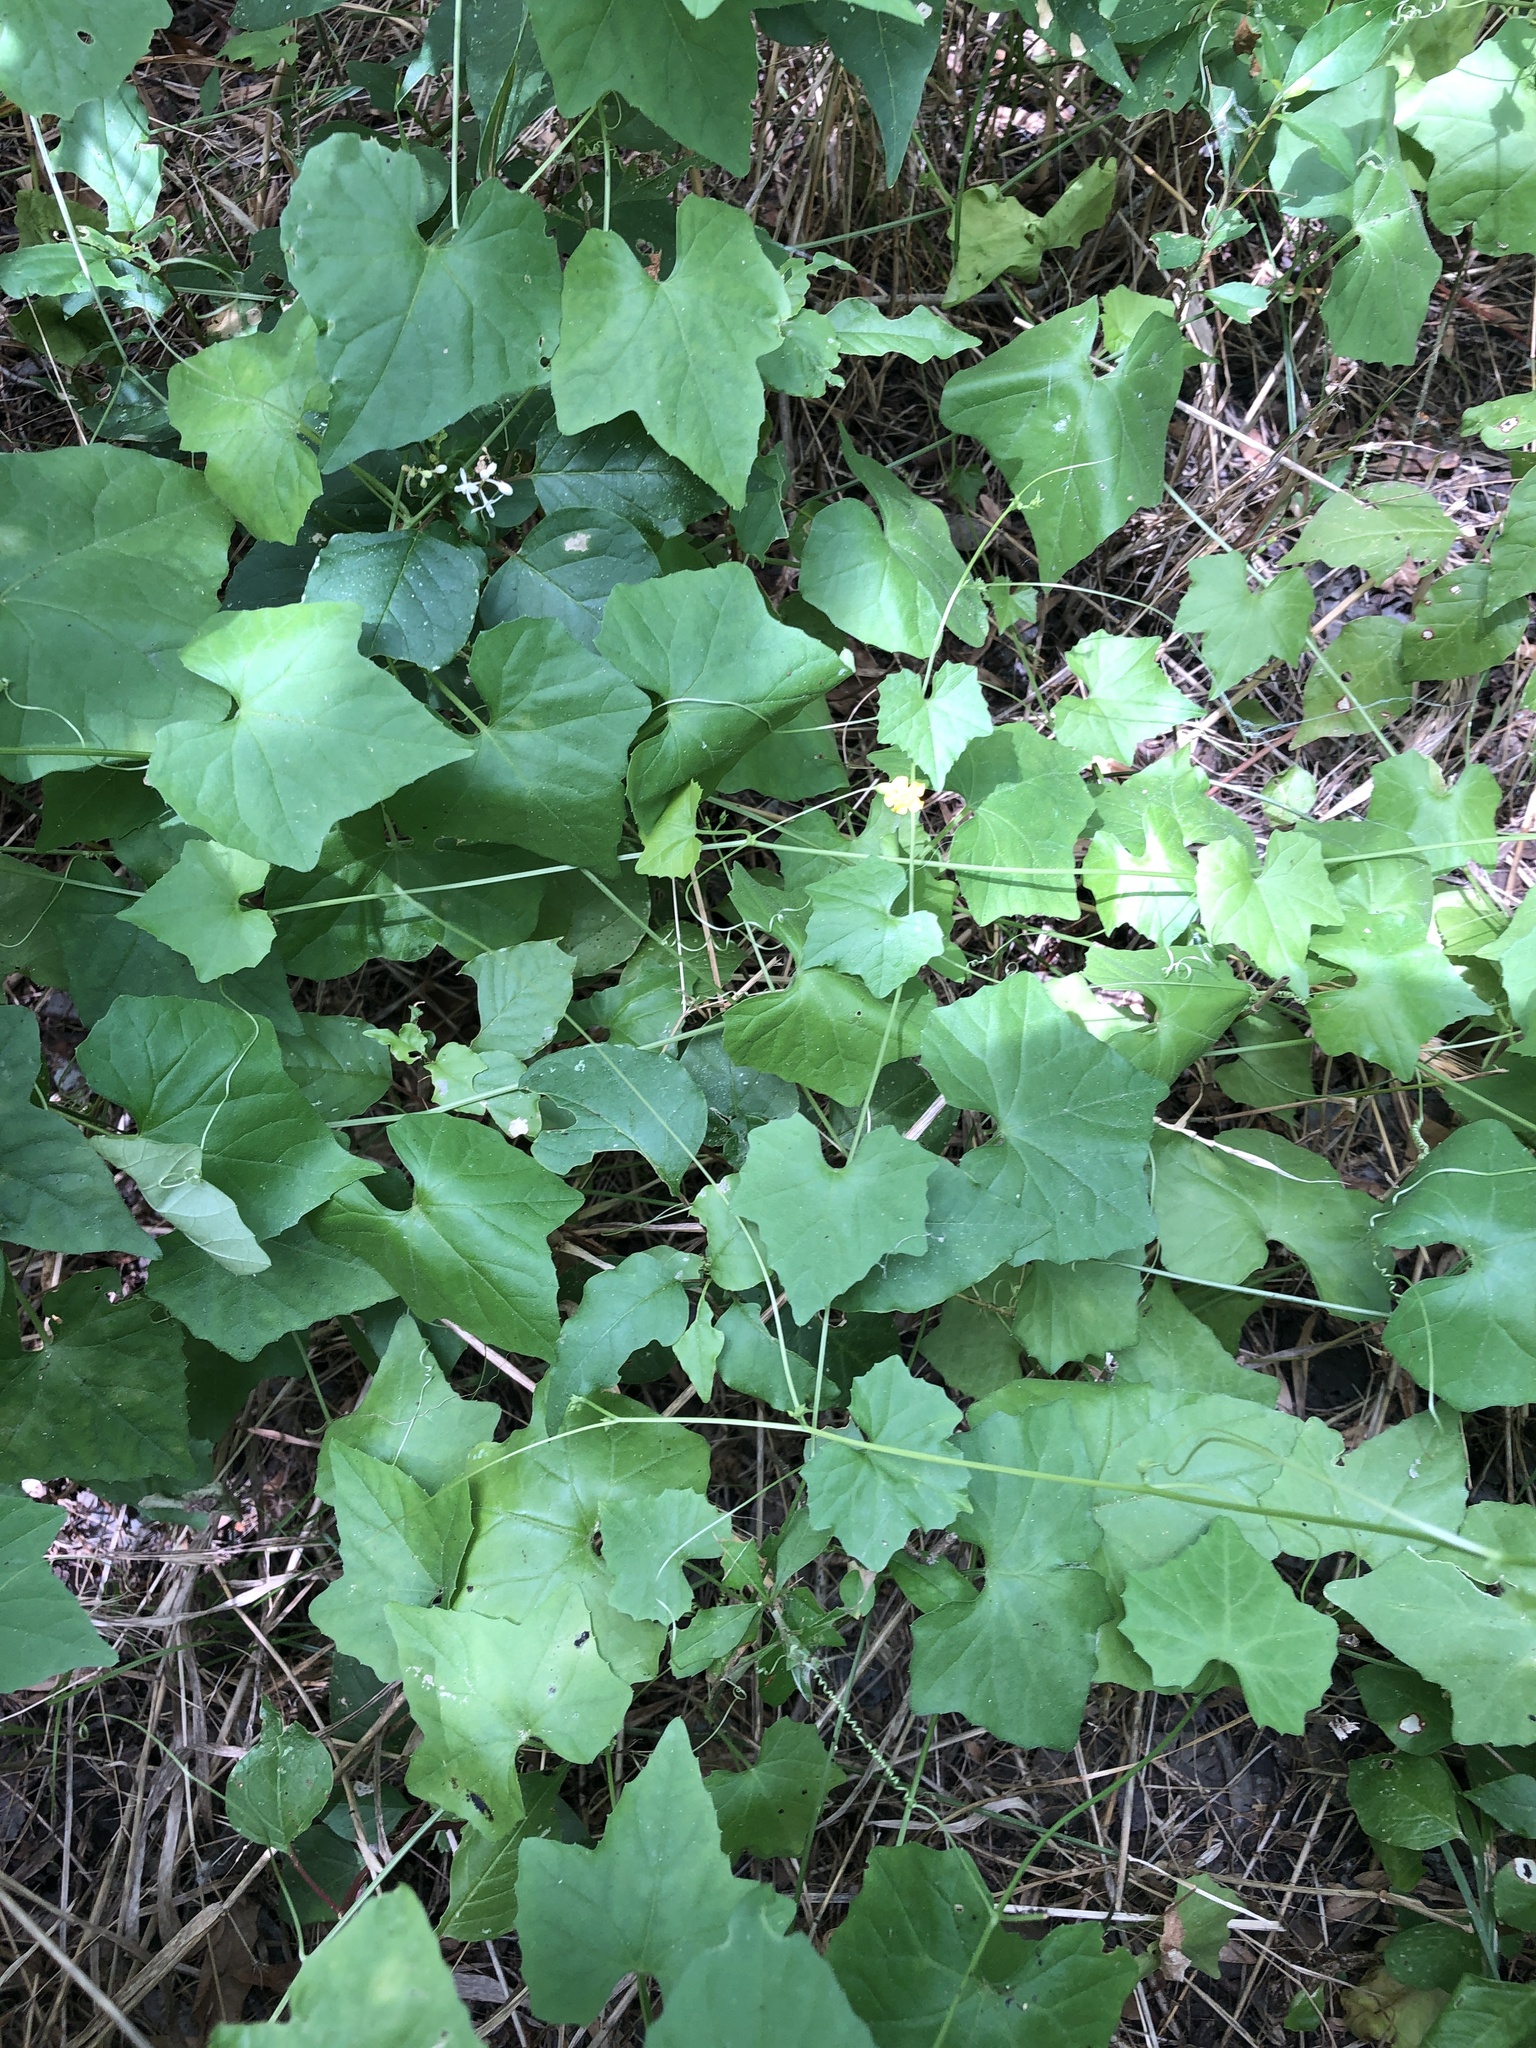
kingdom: Plantae
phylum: Tracheophyta
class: Magnoliopsida
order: Cucurbitales
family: Cucurbitaceae
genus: Melothria
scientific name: Melothria pendula
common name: Creeping-cucumber
